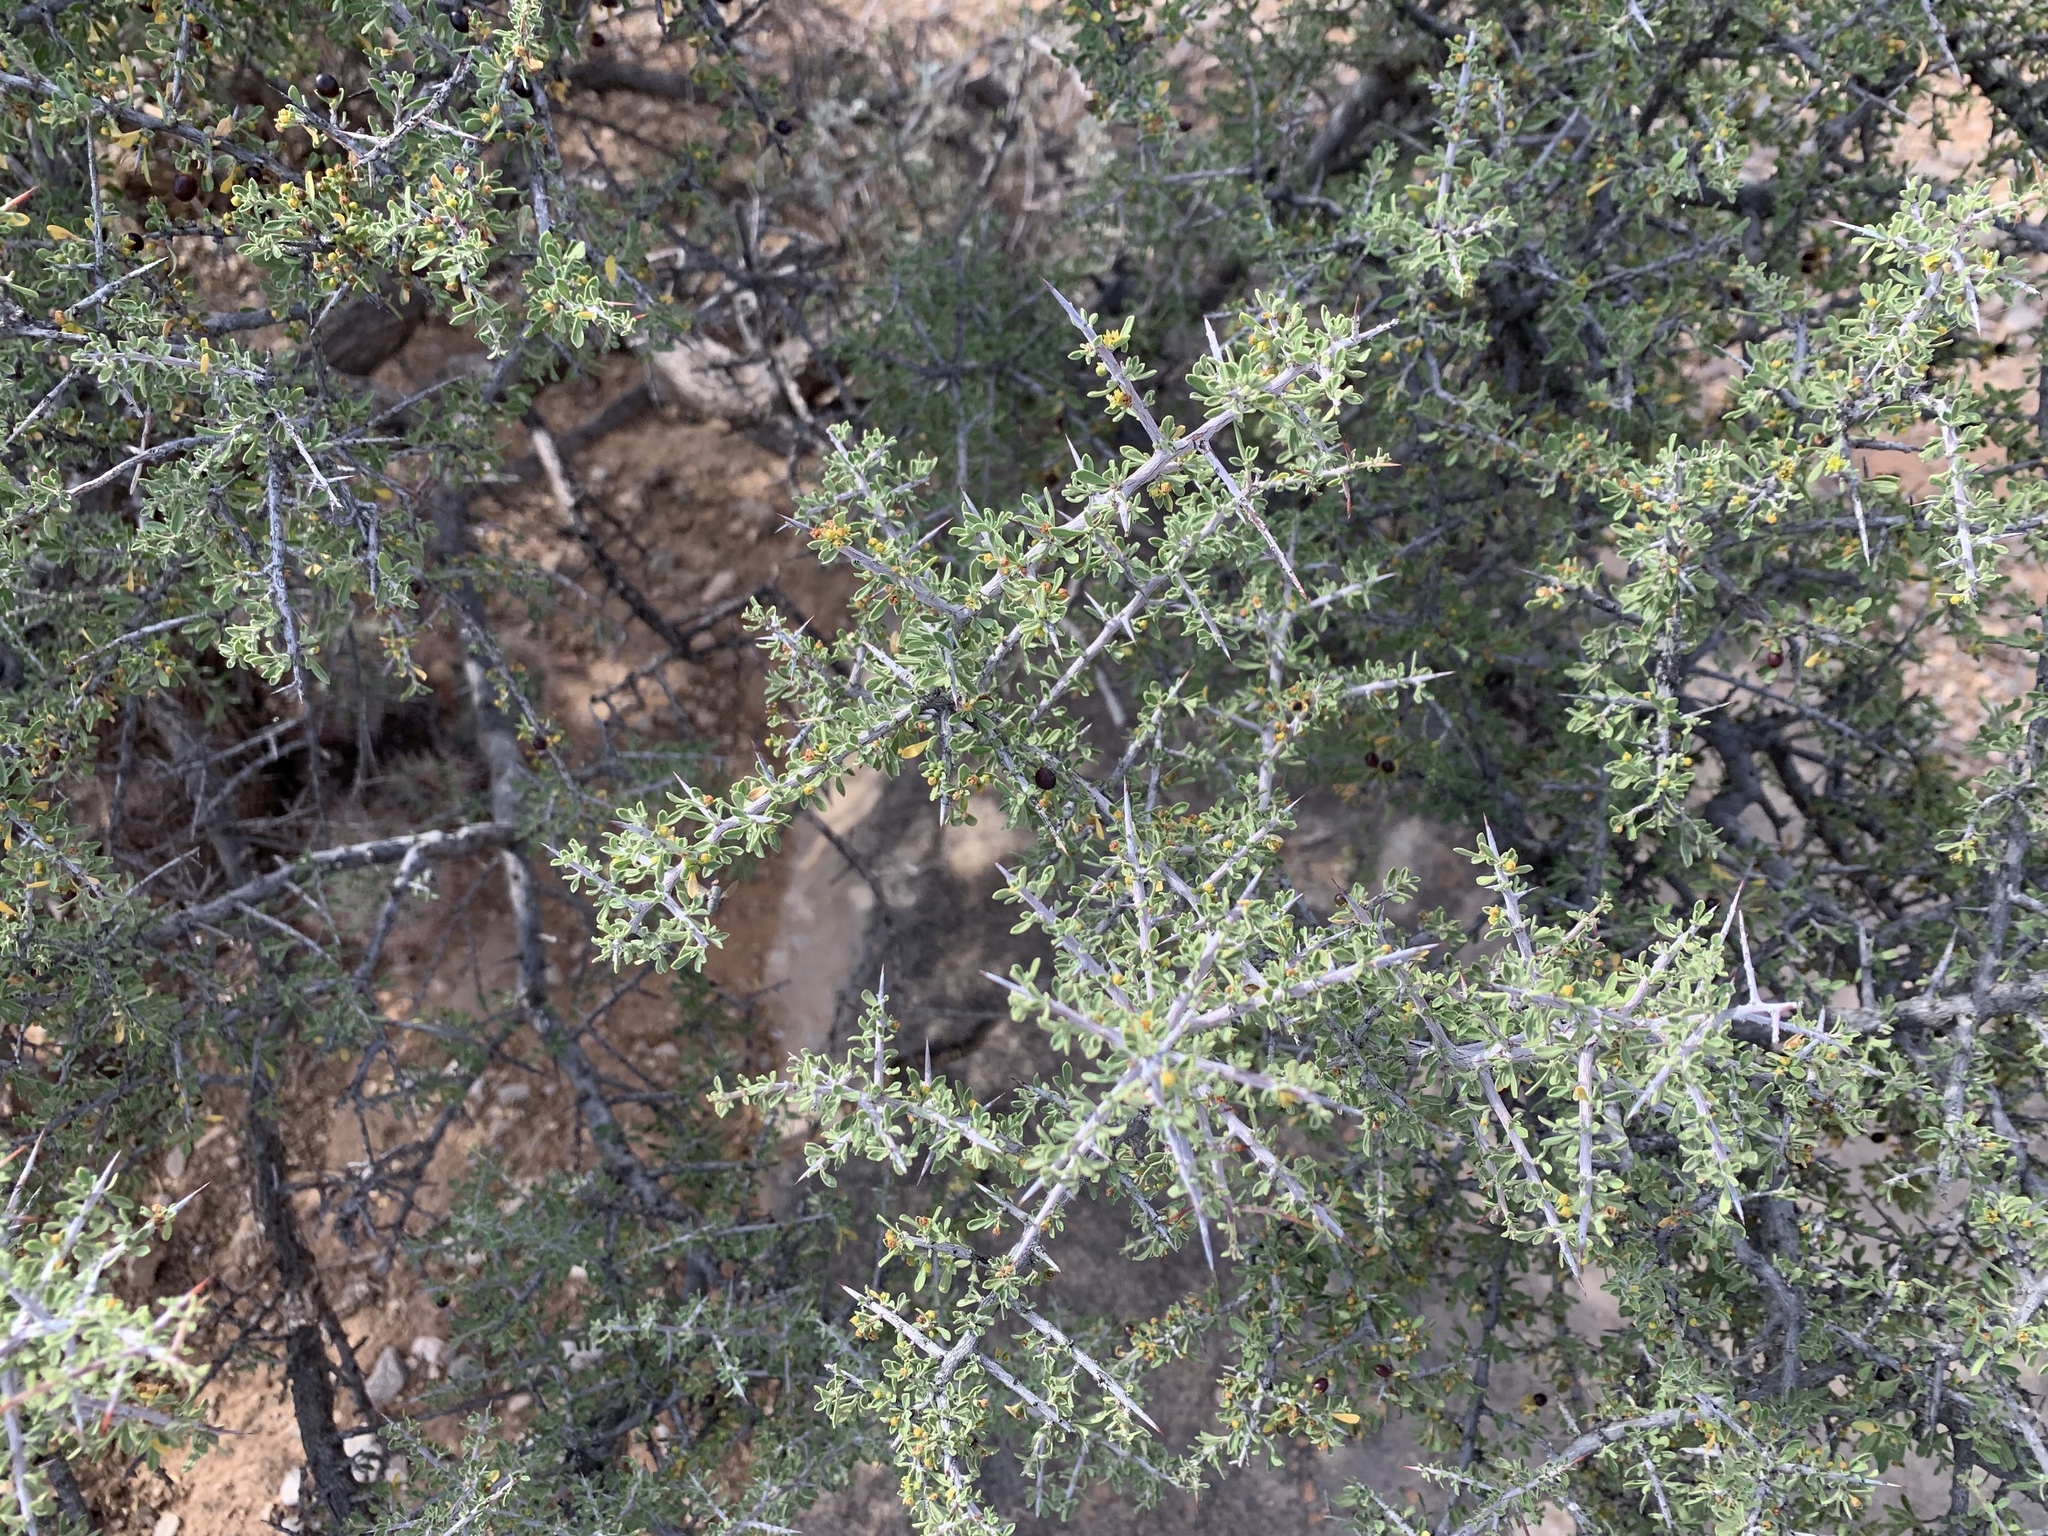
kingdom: Plantae
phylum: Tracheophyta
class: Magnoliopsida
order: Rosales
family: Rhamnaceae
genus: Condalia
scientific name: Condalia warnockii
